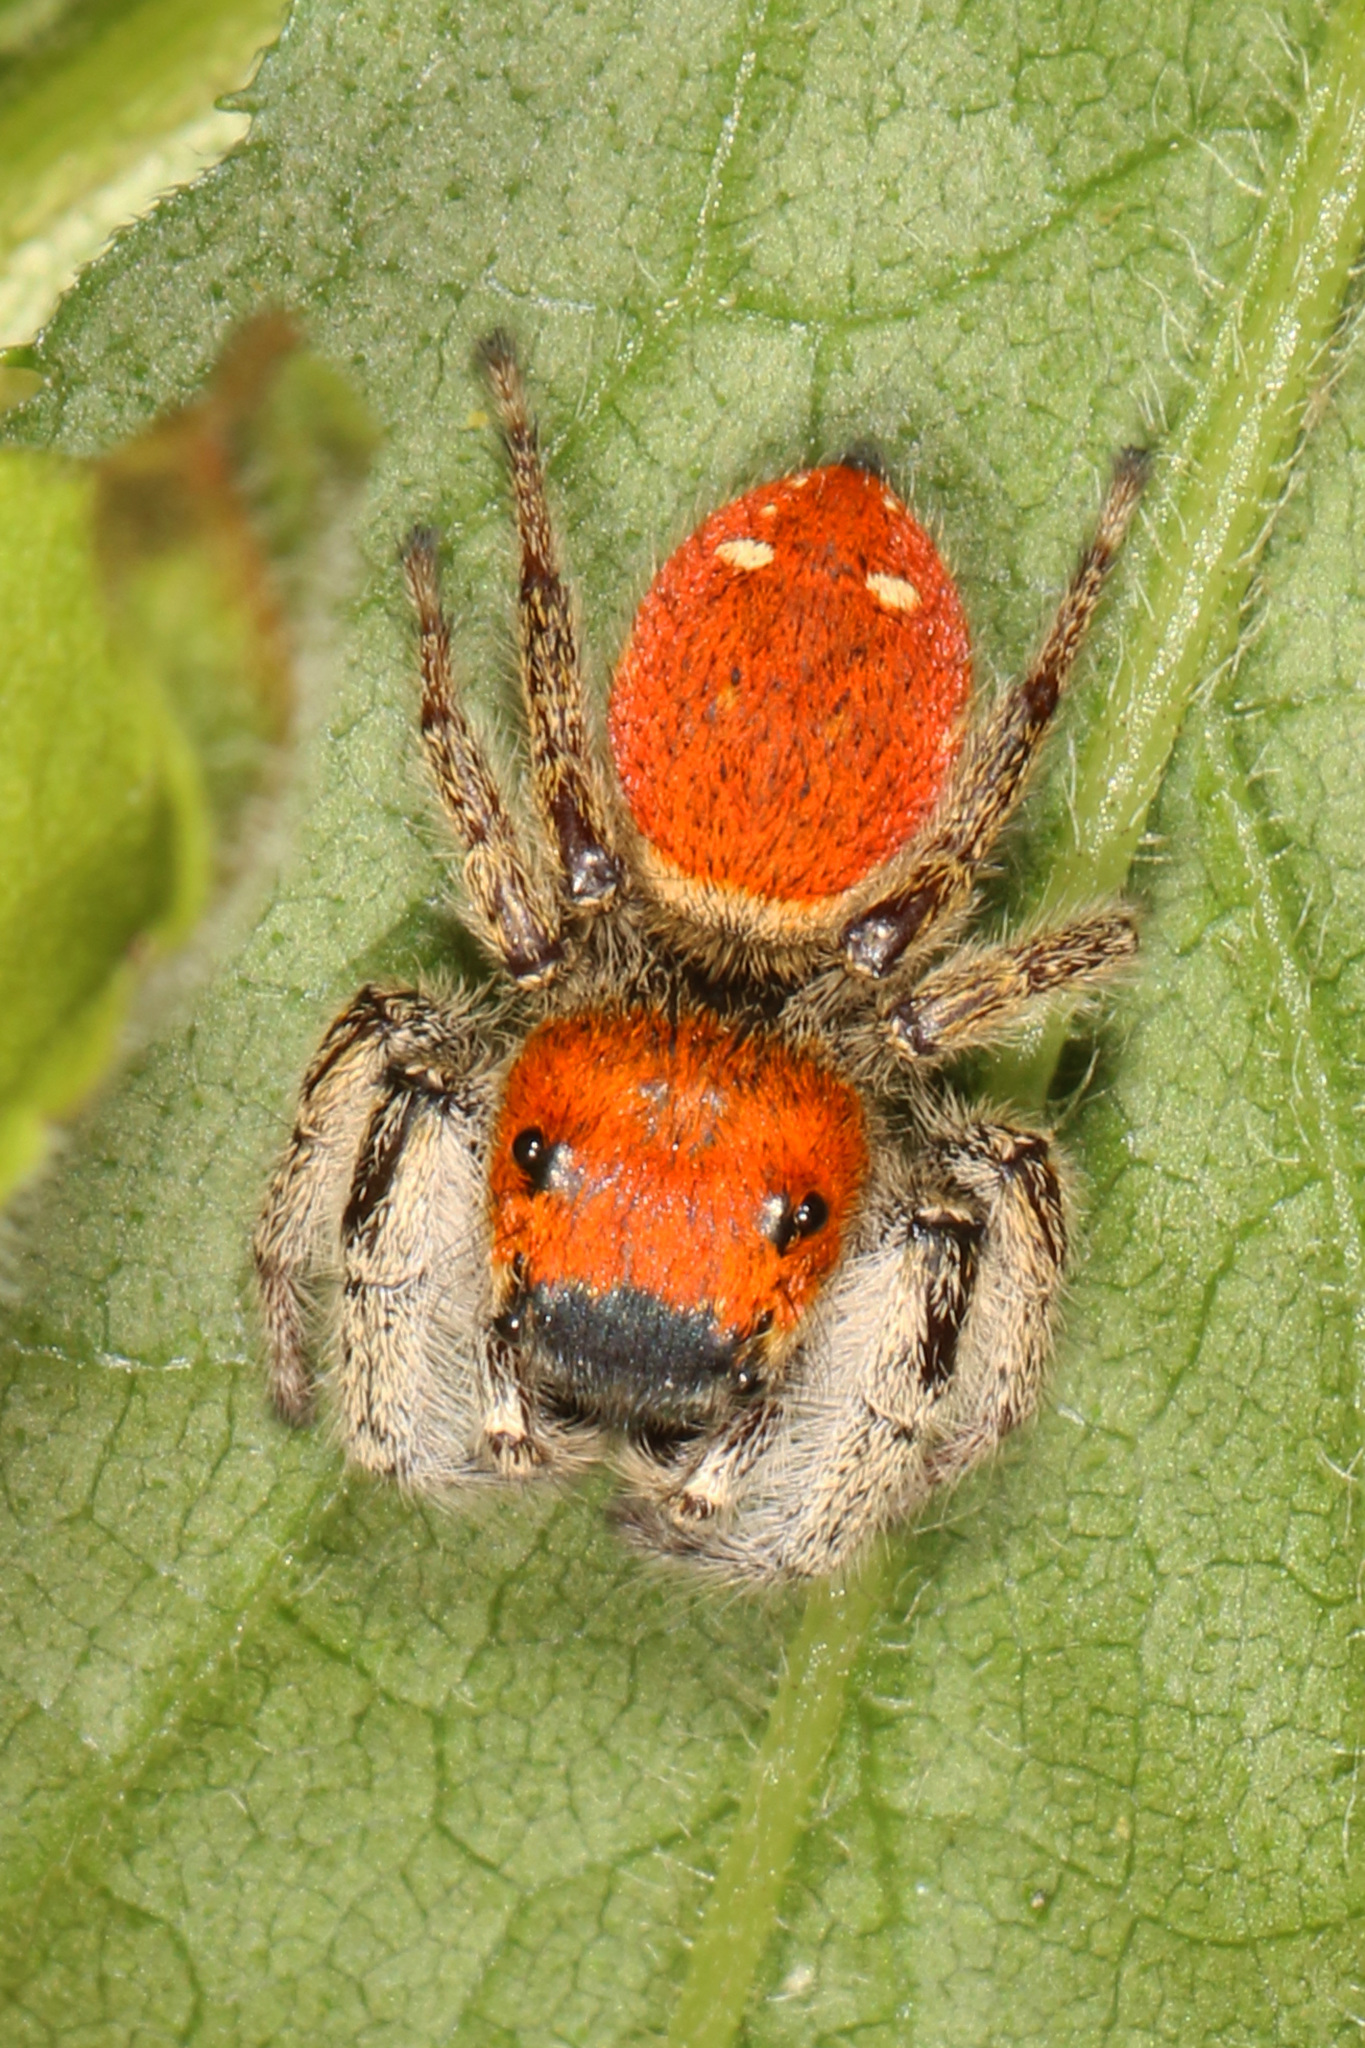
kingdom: Animalia
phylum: Arthropoda
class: Arachnida
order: Araneae
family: Salticidae
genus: Phidippus
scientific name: Phidippus whitmani
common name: Whitman's jumping spider
